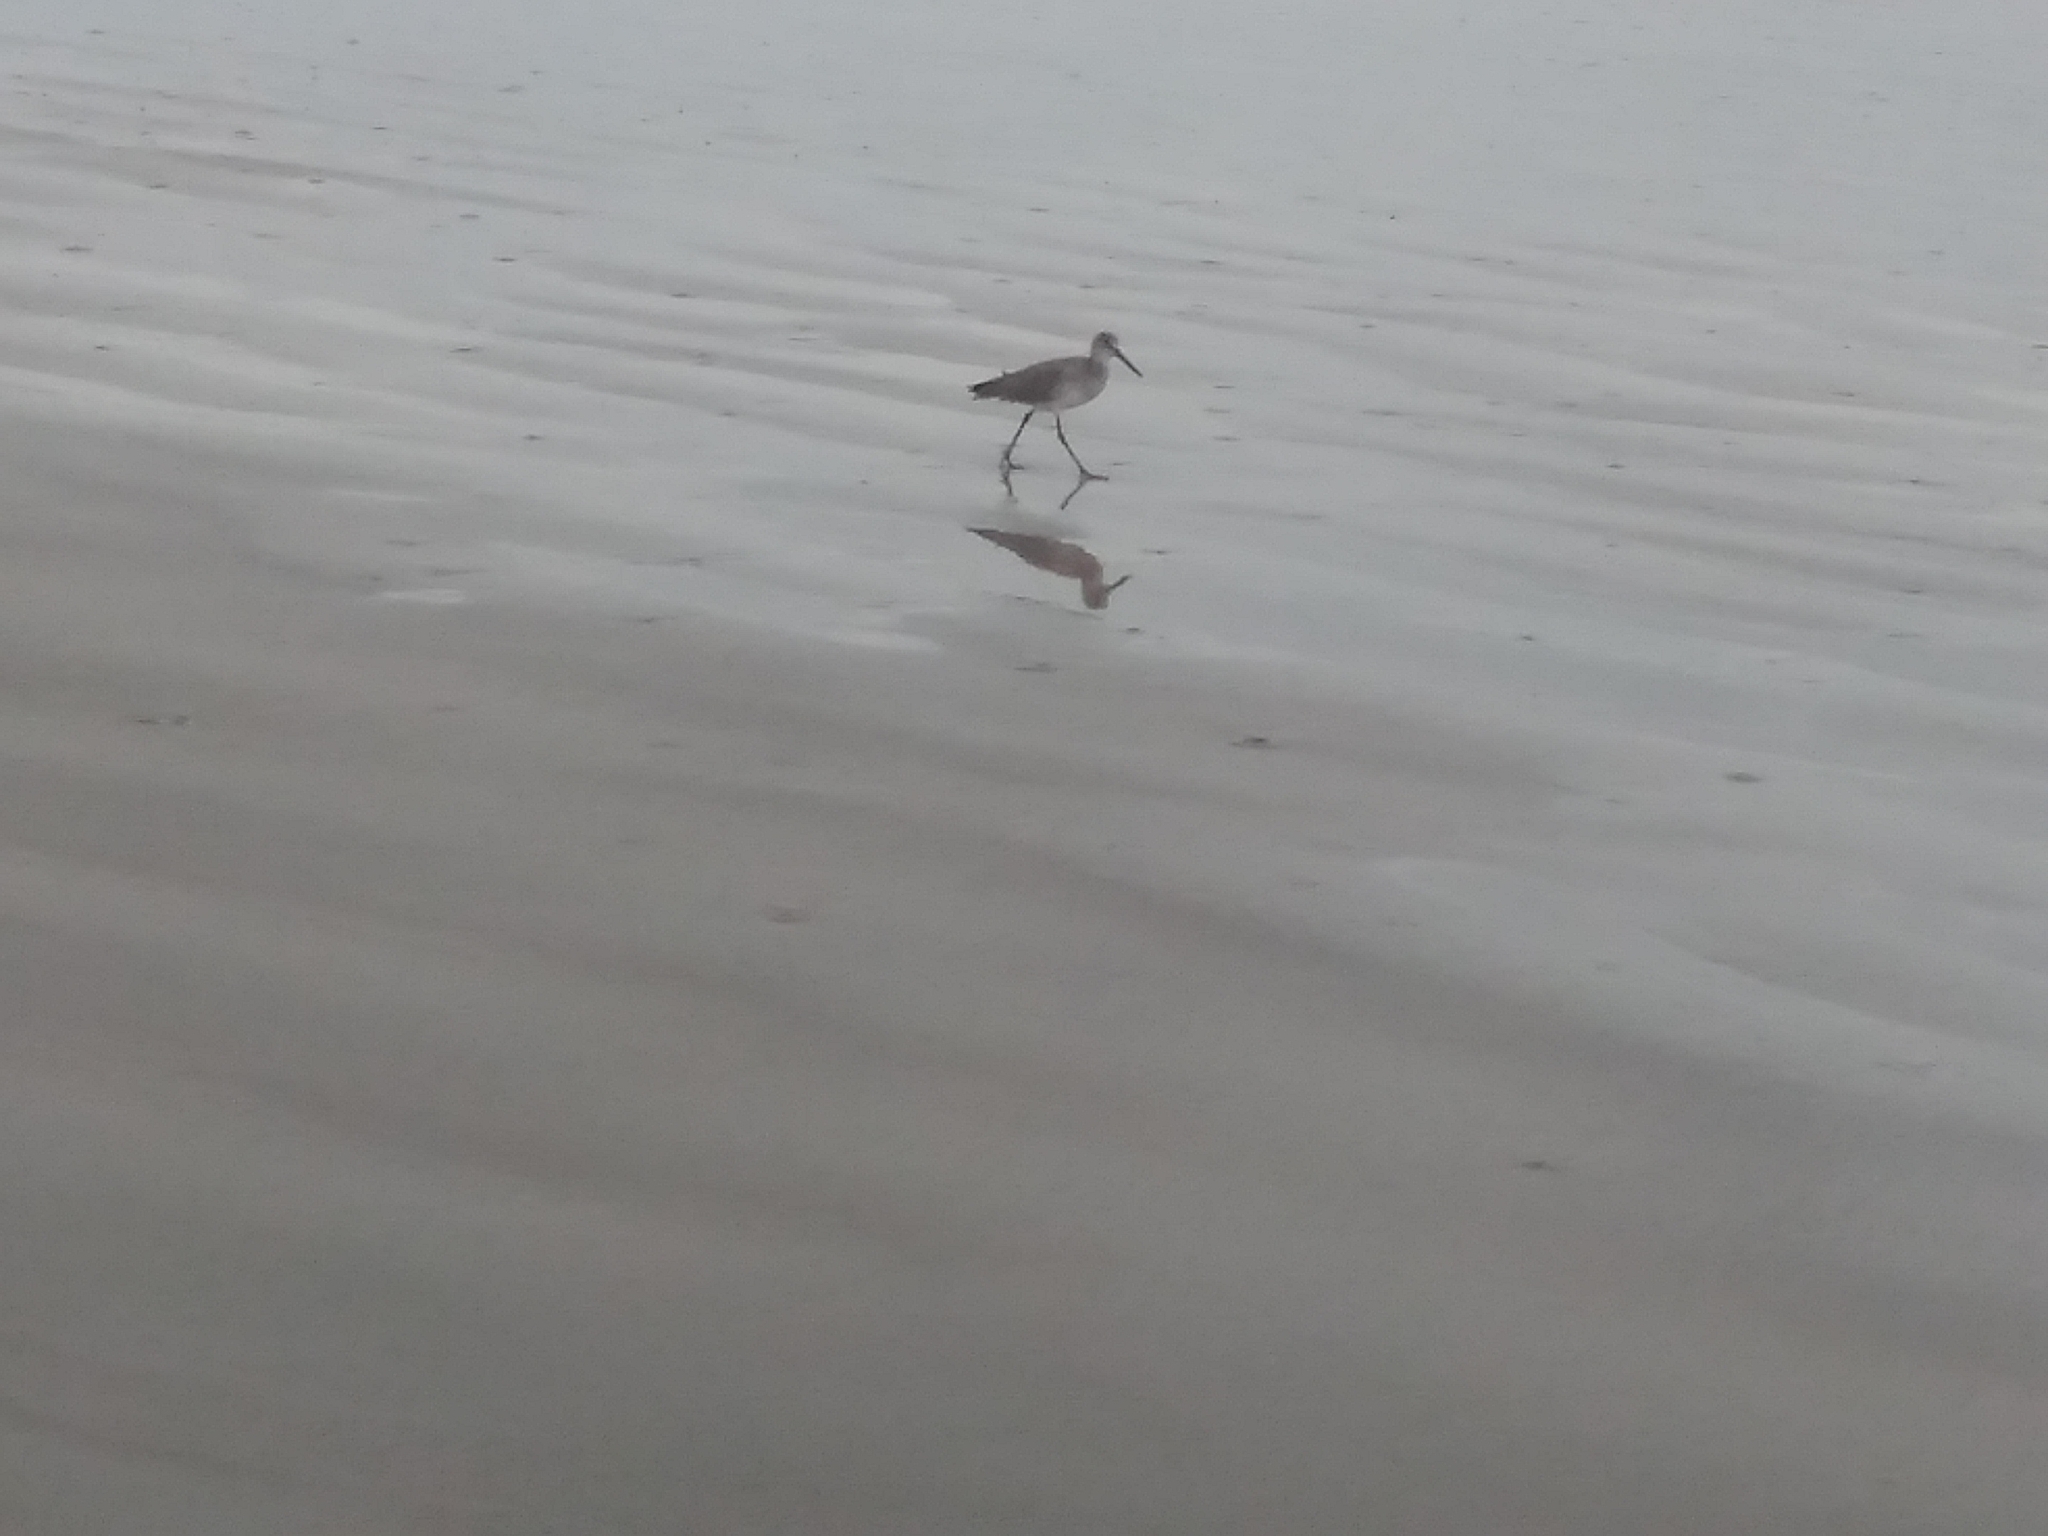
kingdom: Animalia
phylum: Chordata
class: Aves
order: Charadriiformes
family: Scolopacidae
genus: Tringa
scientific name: Tringa semipalmata
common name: Willet
